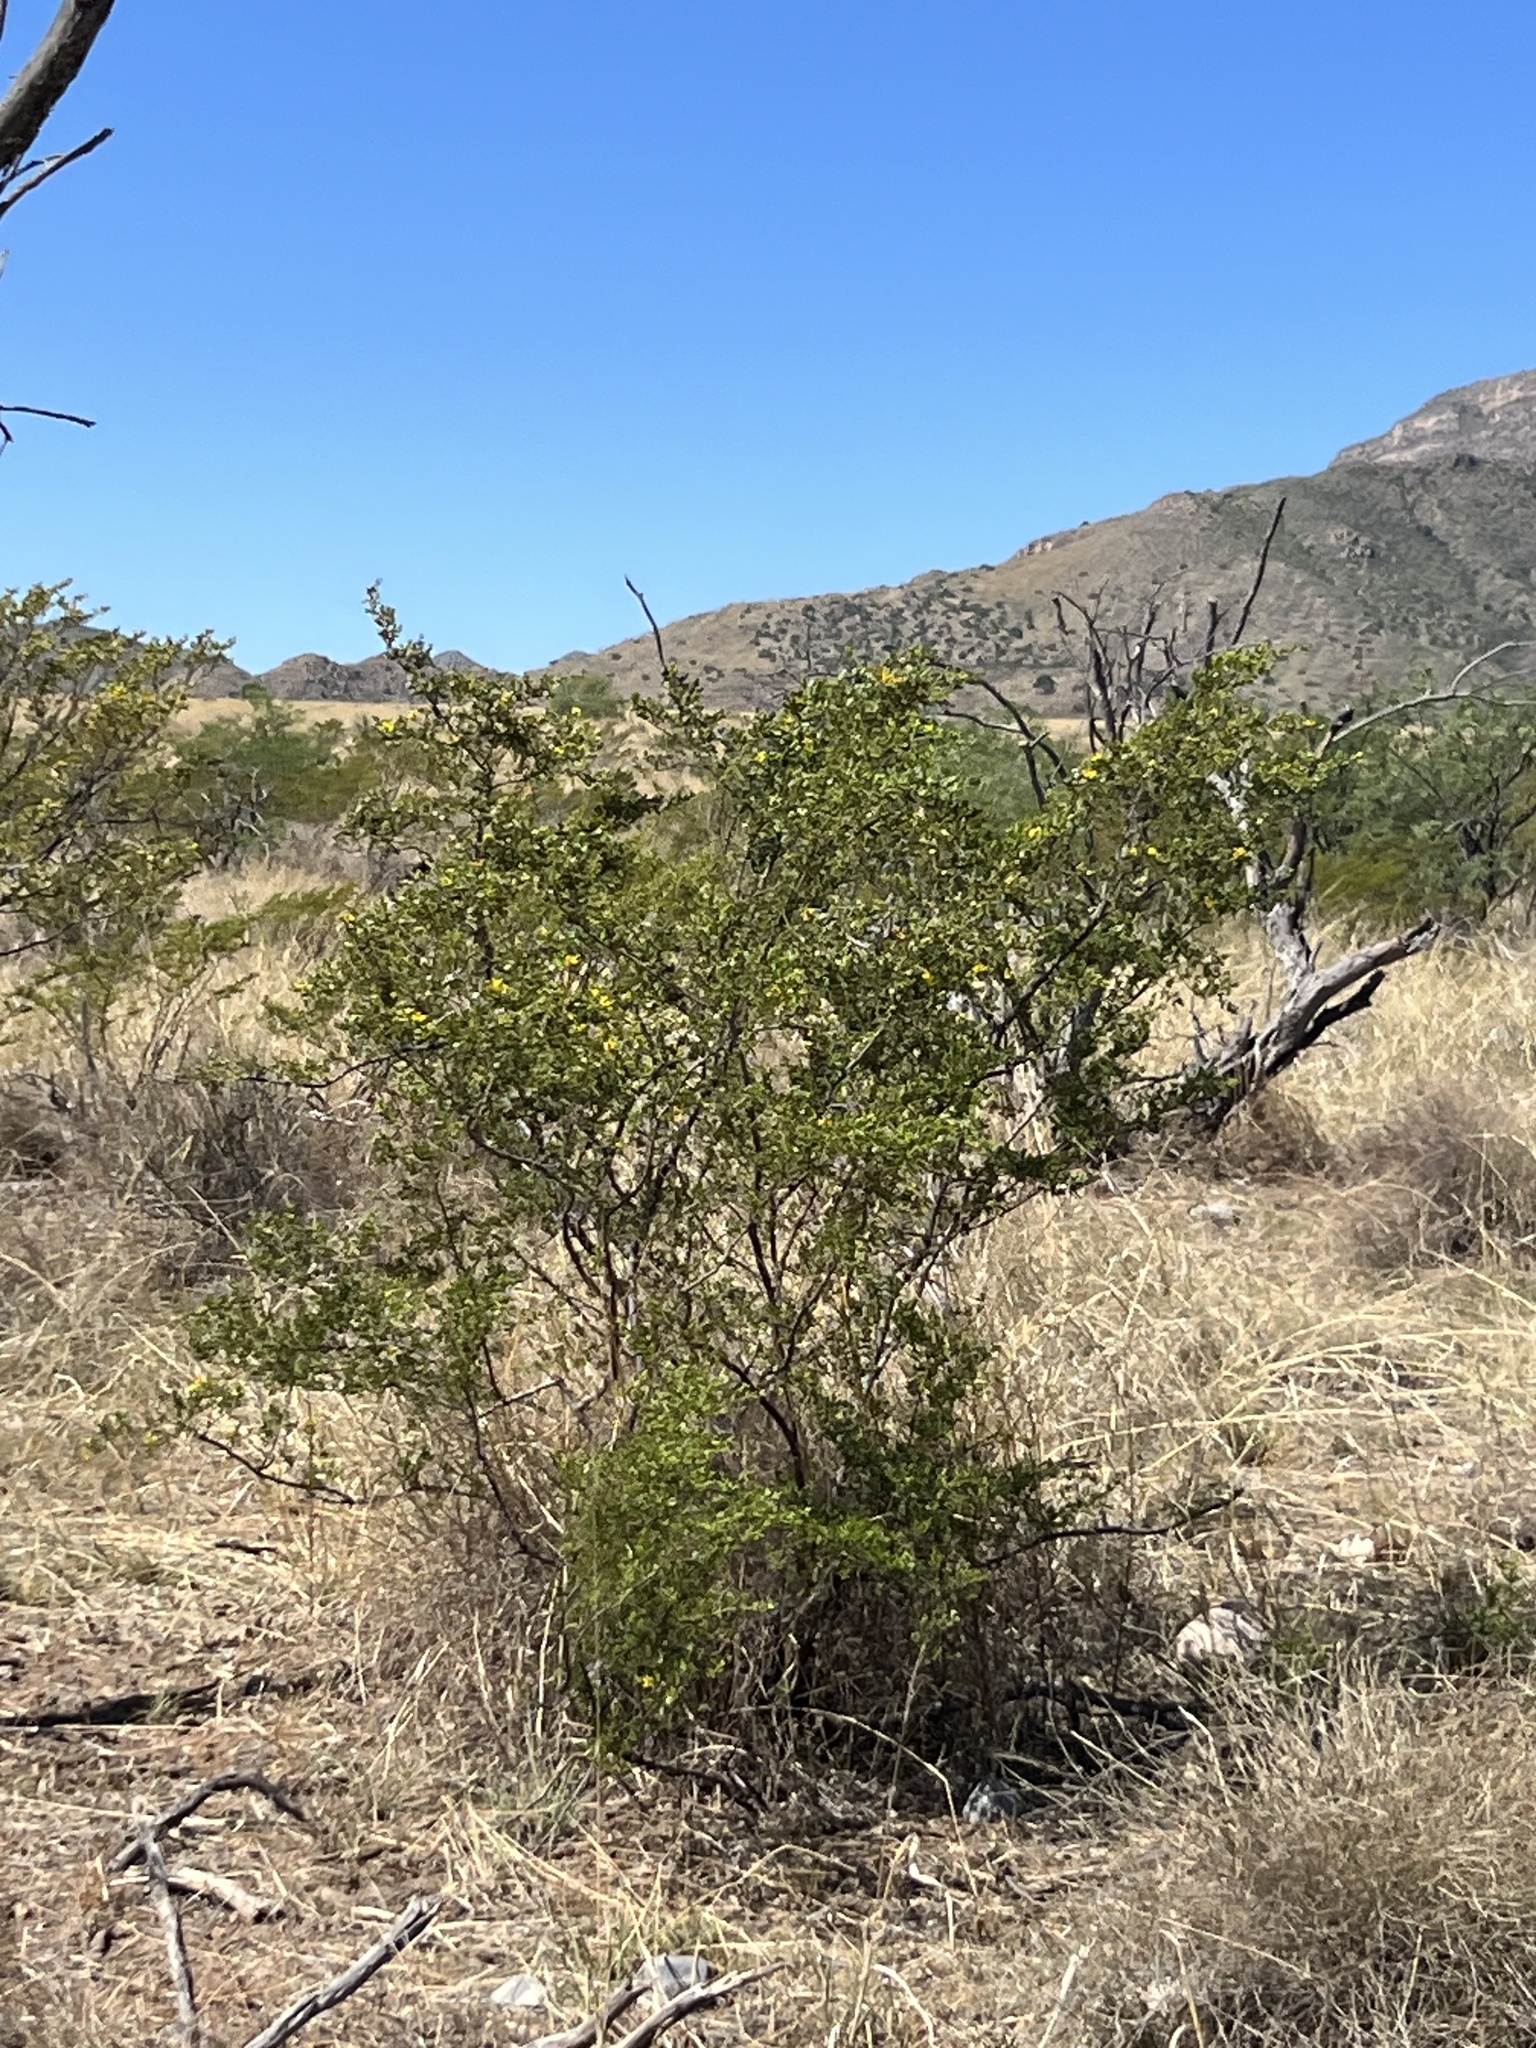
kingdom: Plantae
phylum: Tracheophyta
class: Magnoliopsida
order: Zygophyllales
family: Zygophyllaceae
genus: Larrea
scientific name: Larrea tridentata
